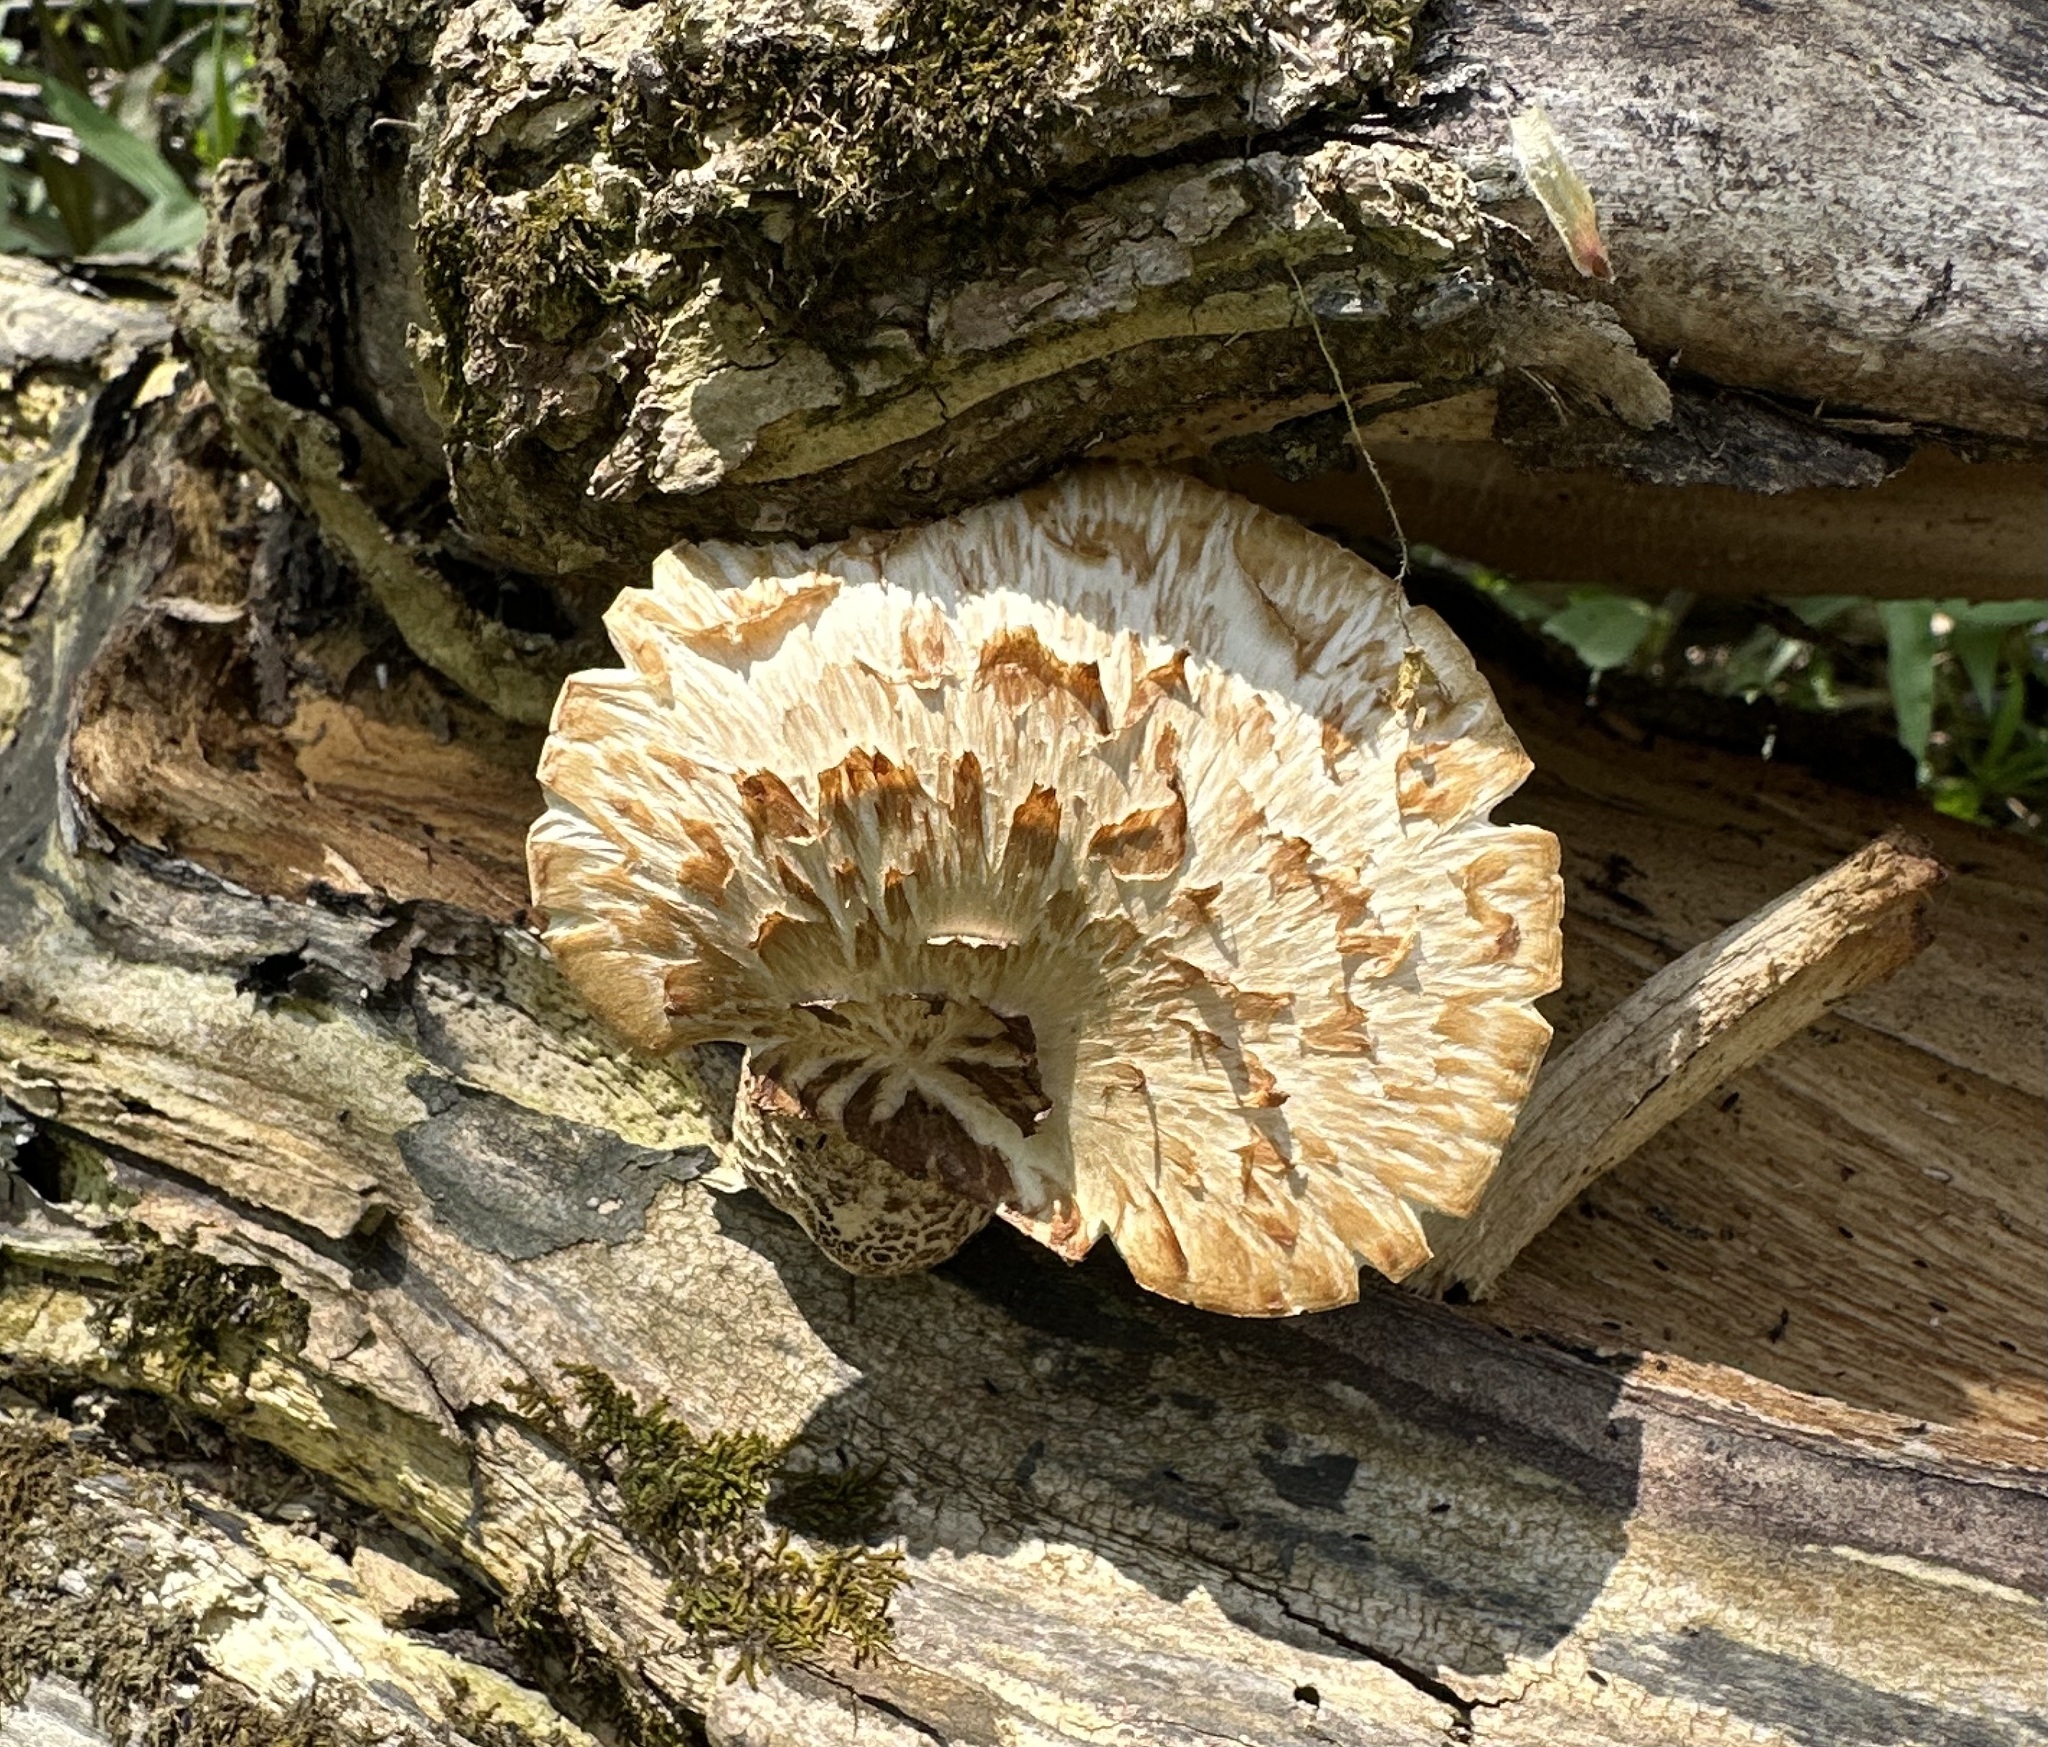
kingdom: Fungi
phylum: Basidiomycota
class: Agaricomycetes
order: Polyporales
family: Polyporaceae
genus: Cerioporus
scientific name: Cerioporus squamosus
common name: Dryad's saddle
